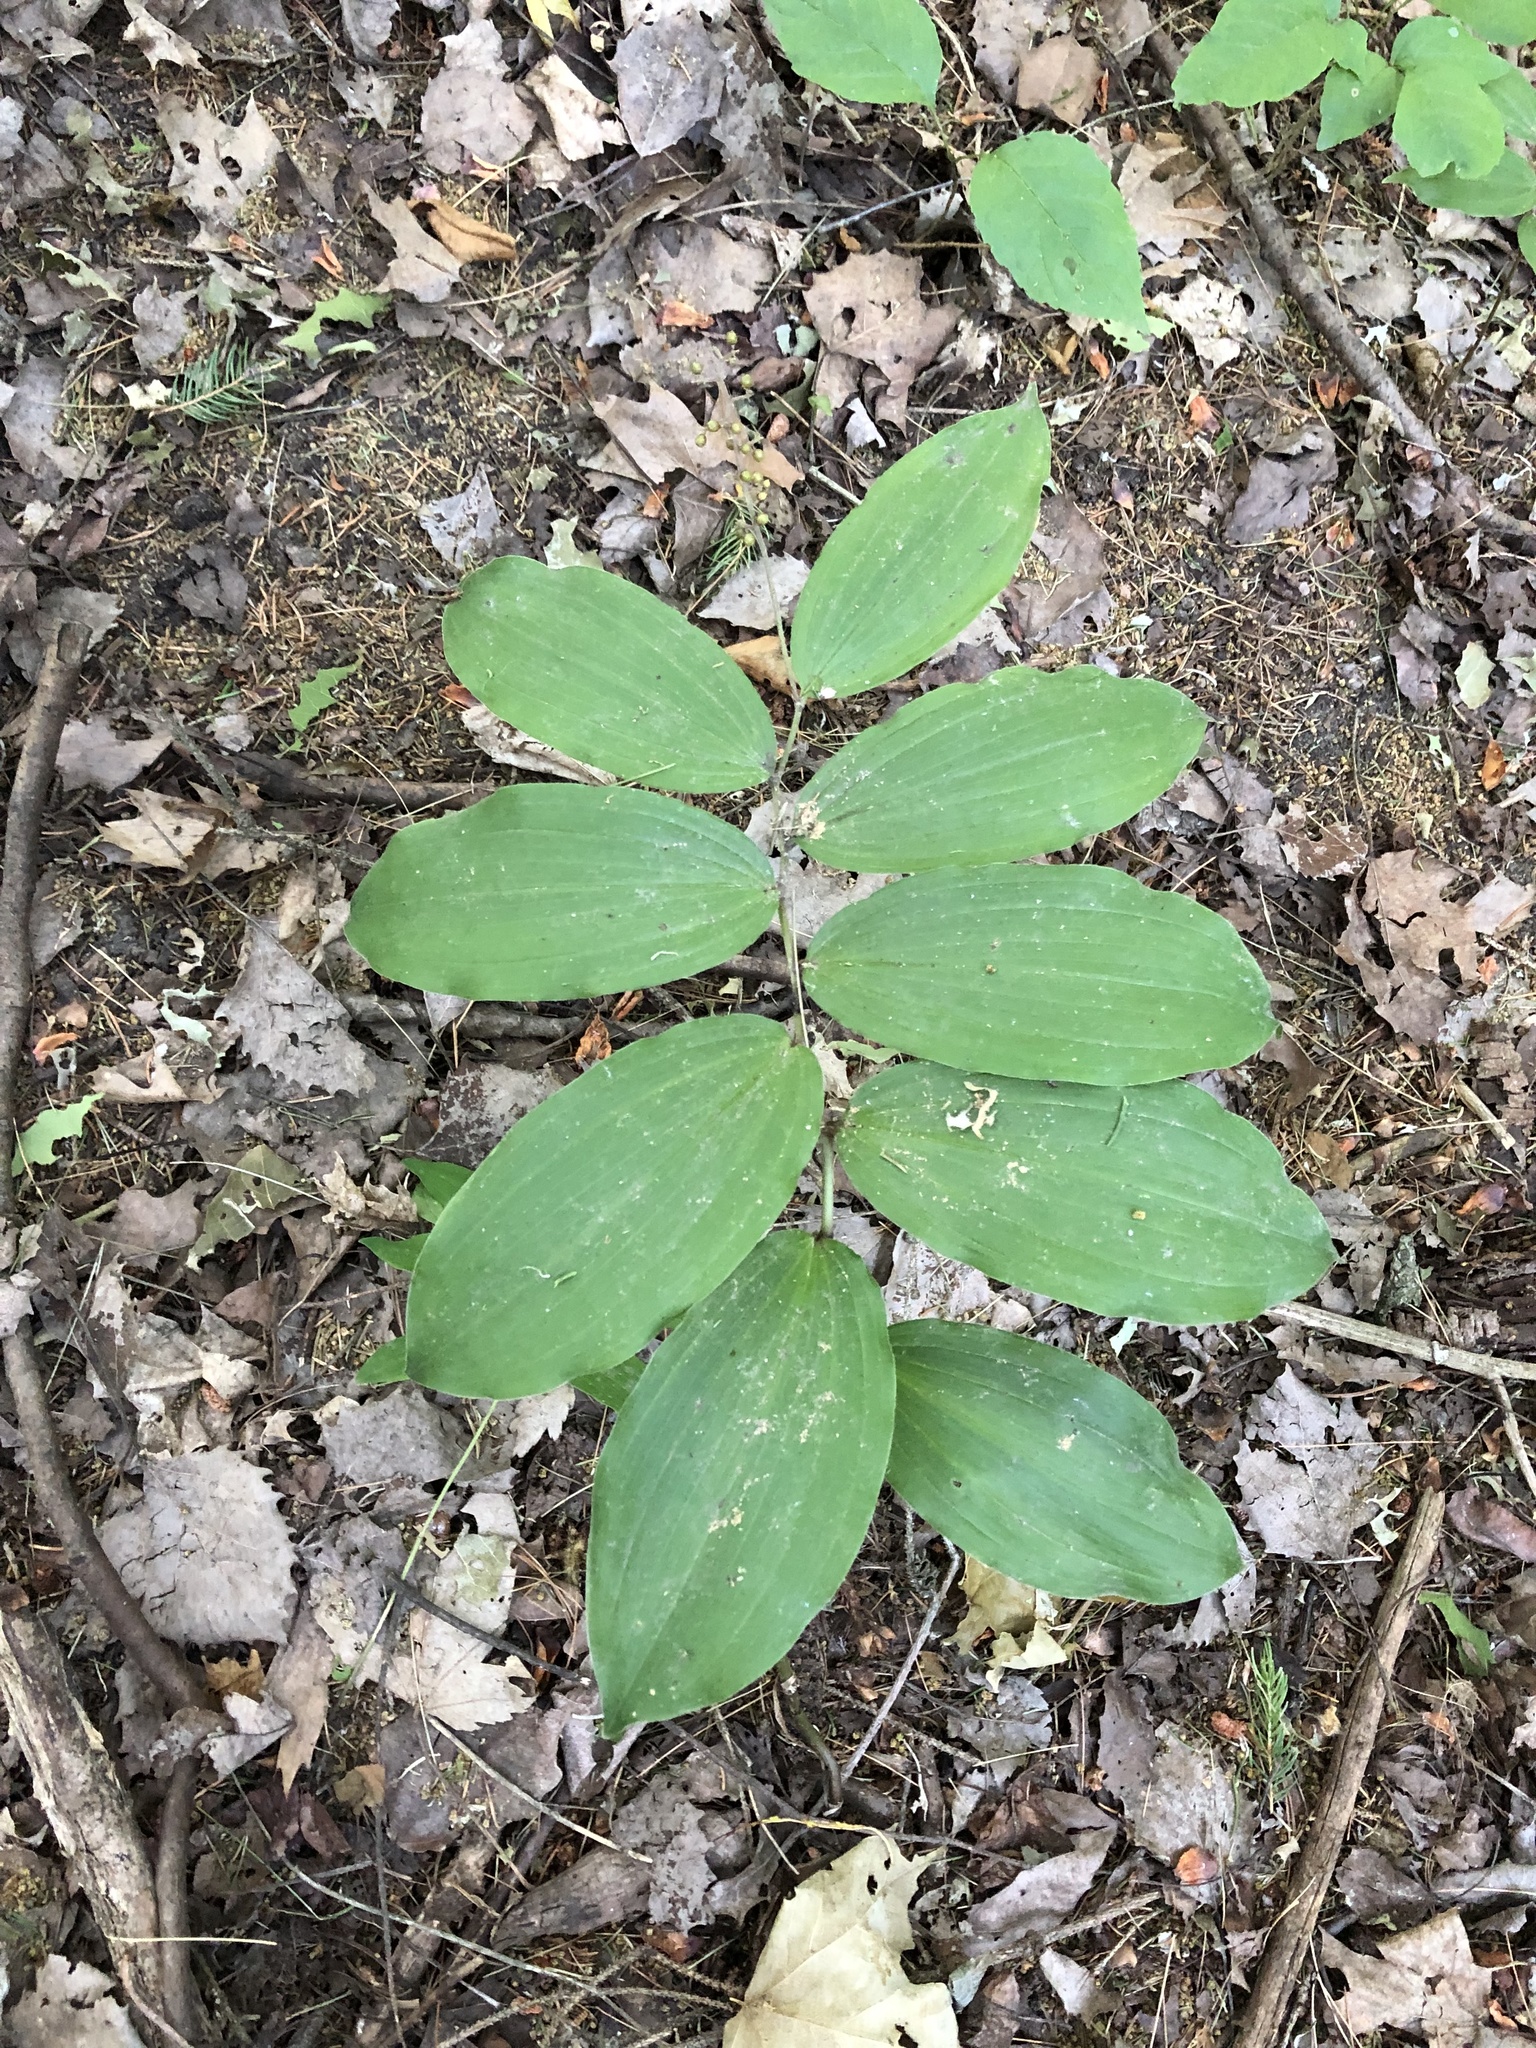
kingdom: Plantae
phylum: Tracheophyta
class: Liliopsida
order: Asparagales
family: Asparagaceae
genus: Maianthemum
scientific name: Maianthemum racemosum
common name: False spikenard
